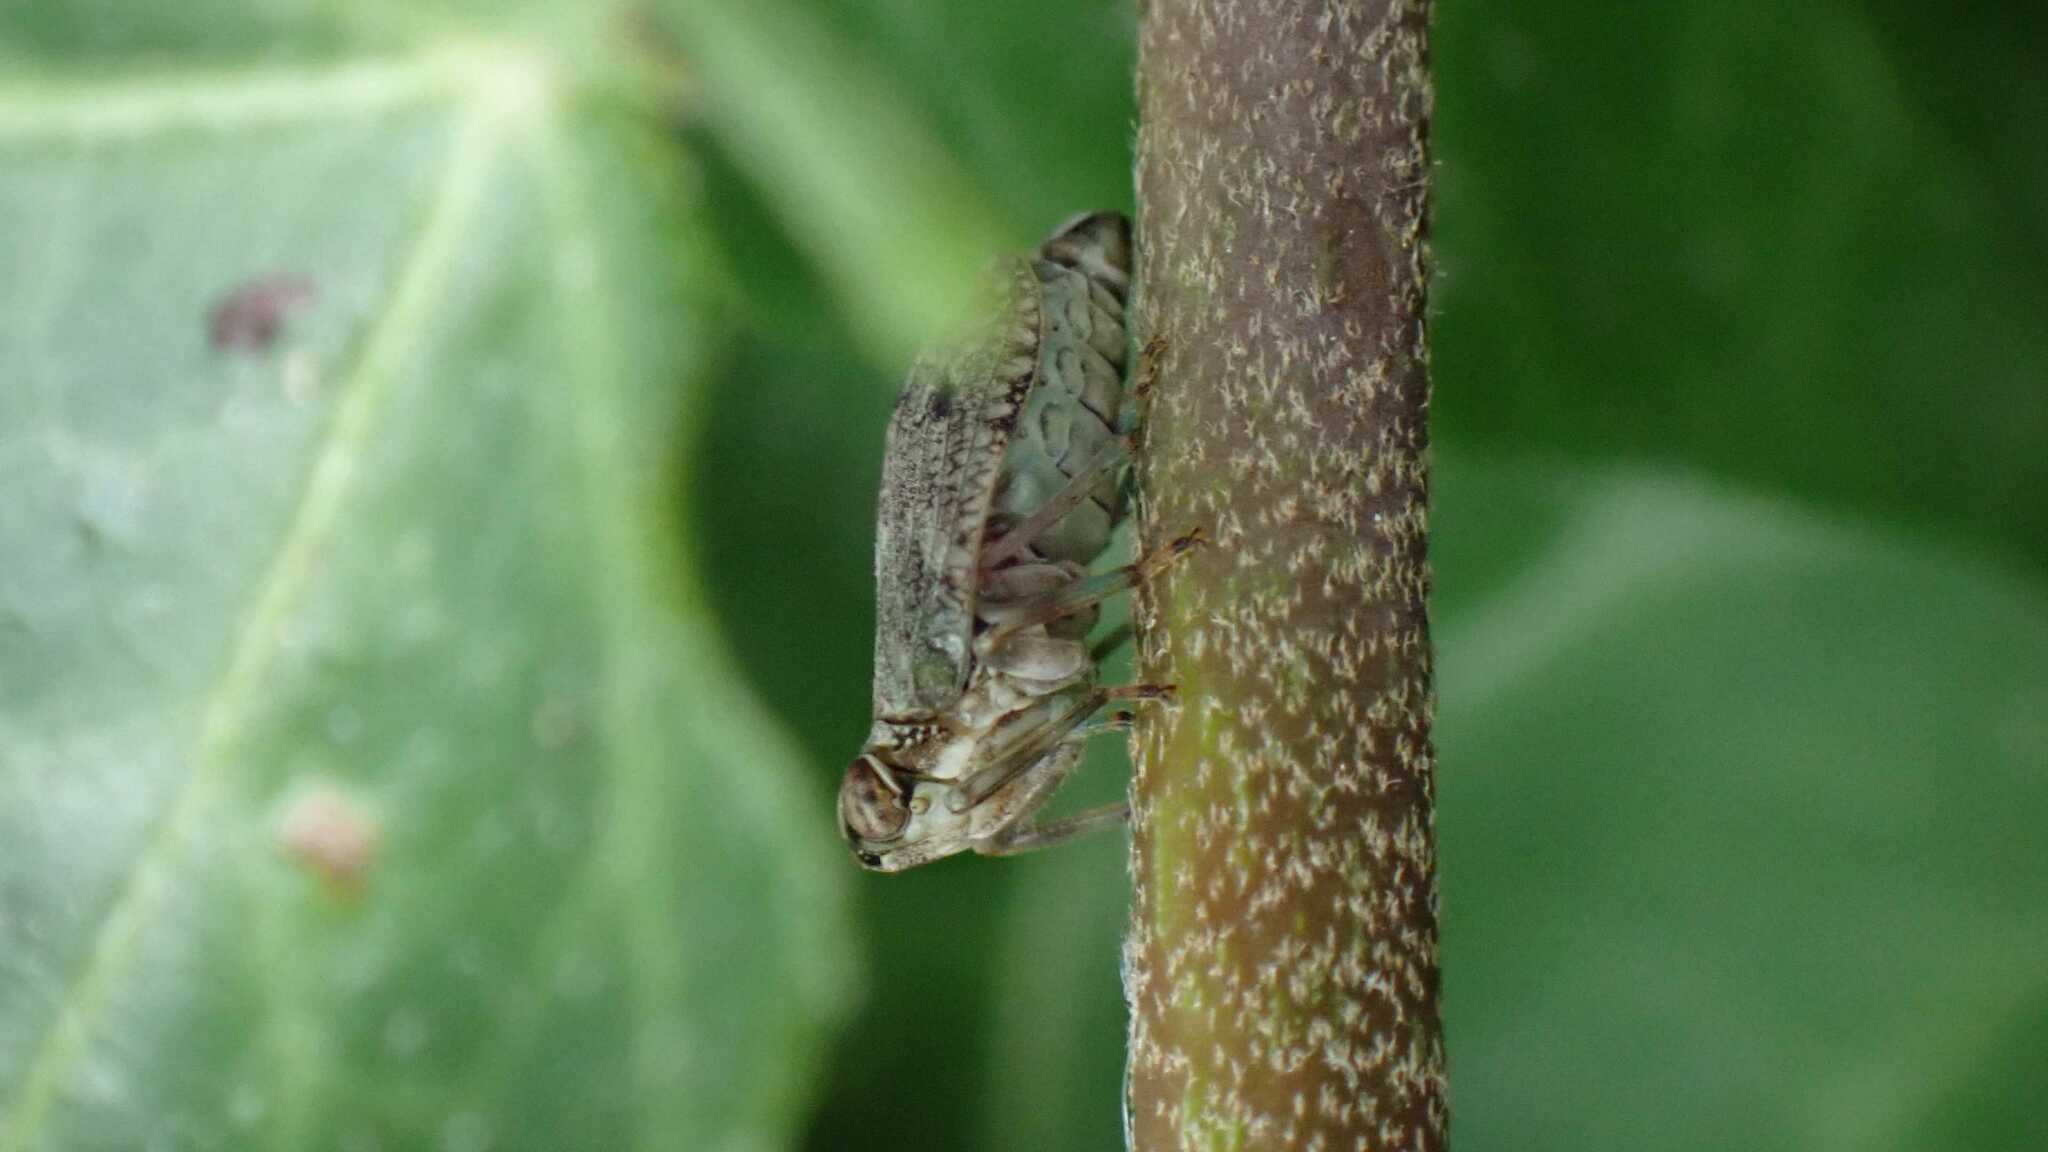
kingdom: Animalia
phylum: Arthropoda
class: Insecta
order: Hemiptera
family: Issidae
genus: Issus
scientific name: Issus coleoptratus
